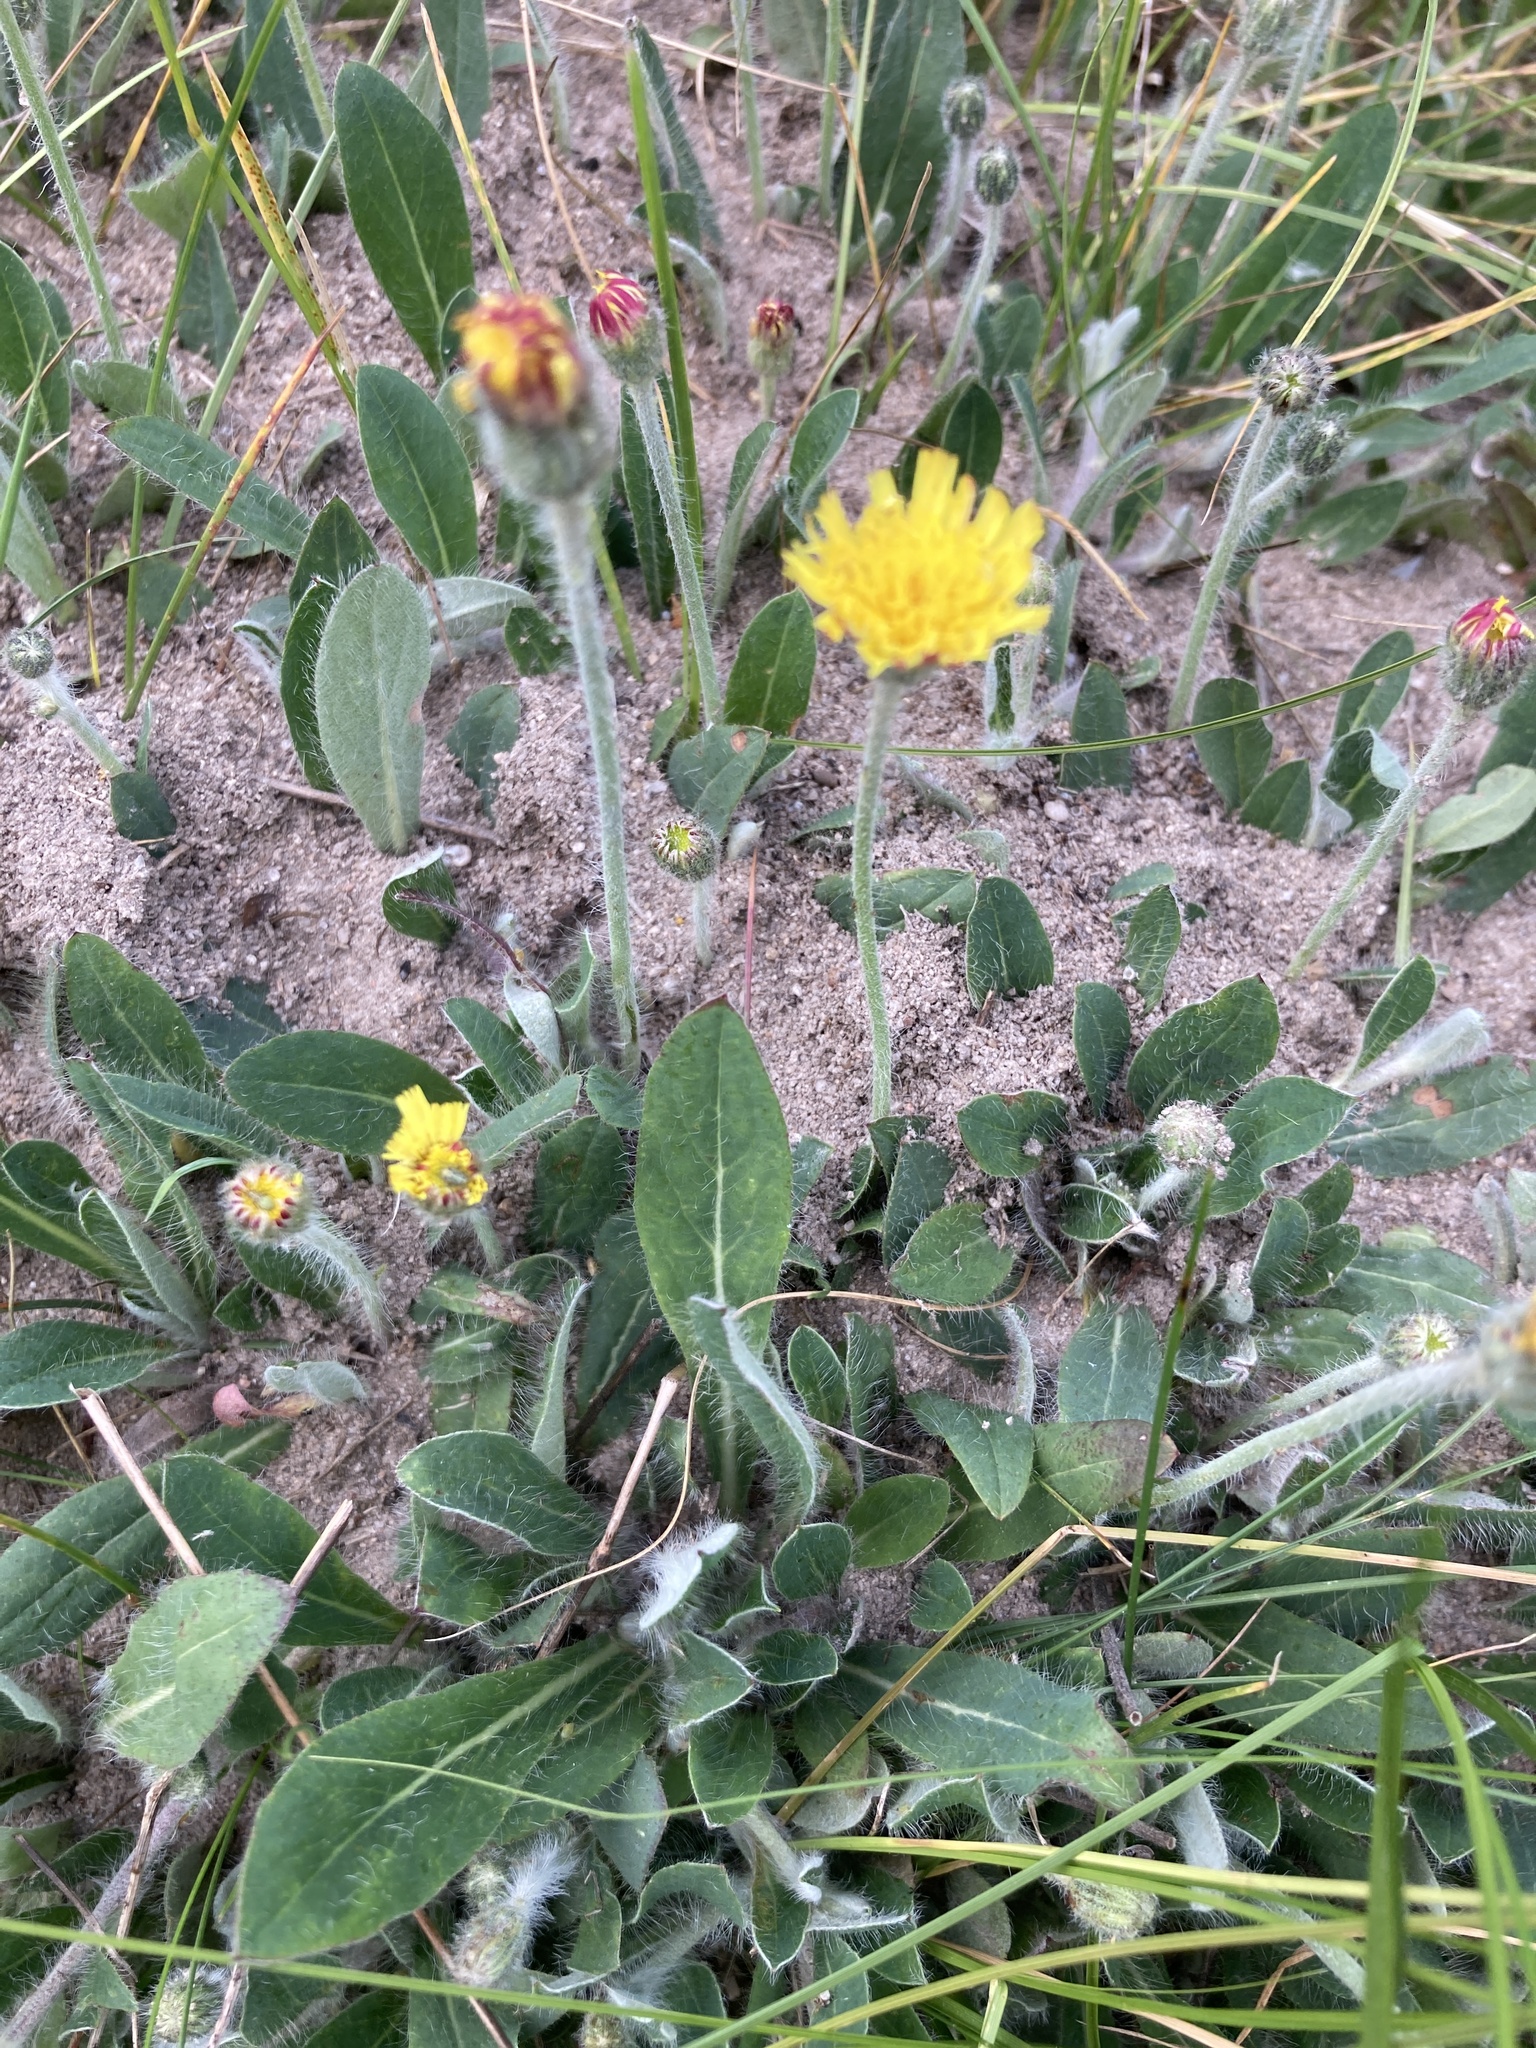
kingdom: Plantae
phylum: Tracheophyta
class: Magnoliopsida
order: Asterales
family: Asteraceae
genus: Pilosella
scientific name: Pilosella officinarum
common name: Mouse-ear hawkweed
